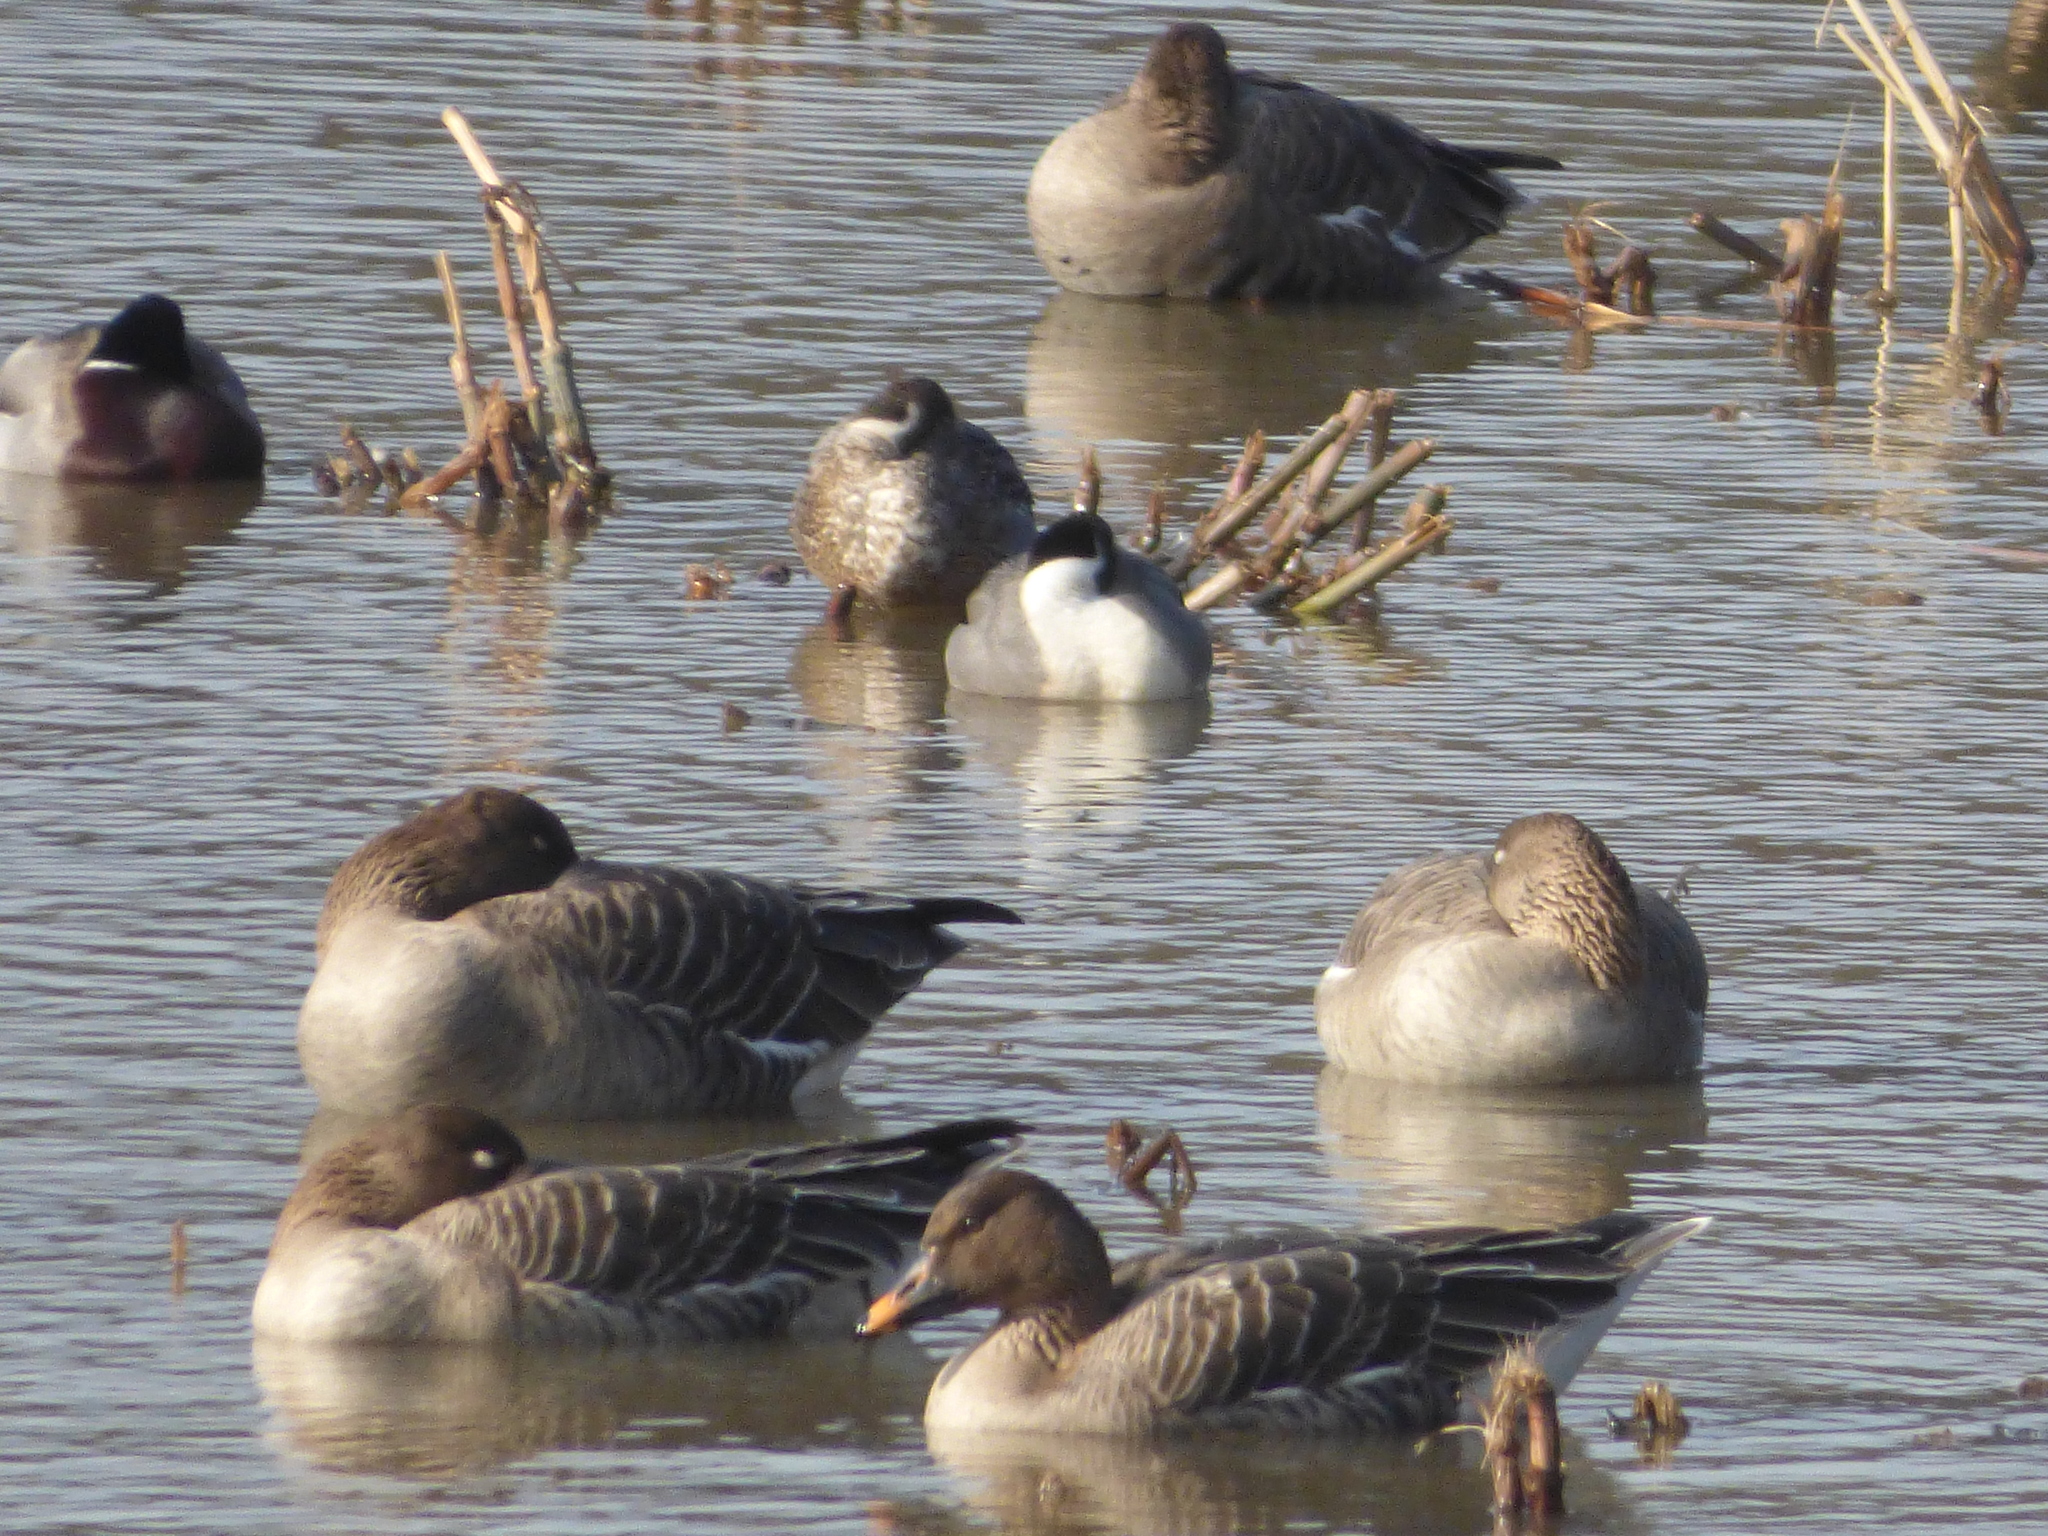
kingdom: Animalia
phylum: Chordata
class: Aves
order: Anseriformes
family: Anatidae
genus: Anas
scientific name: Anas acuta
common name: Northern pintail
